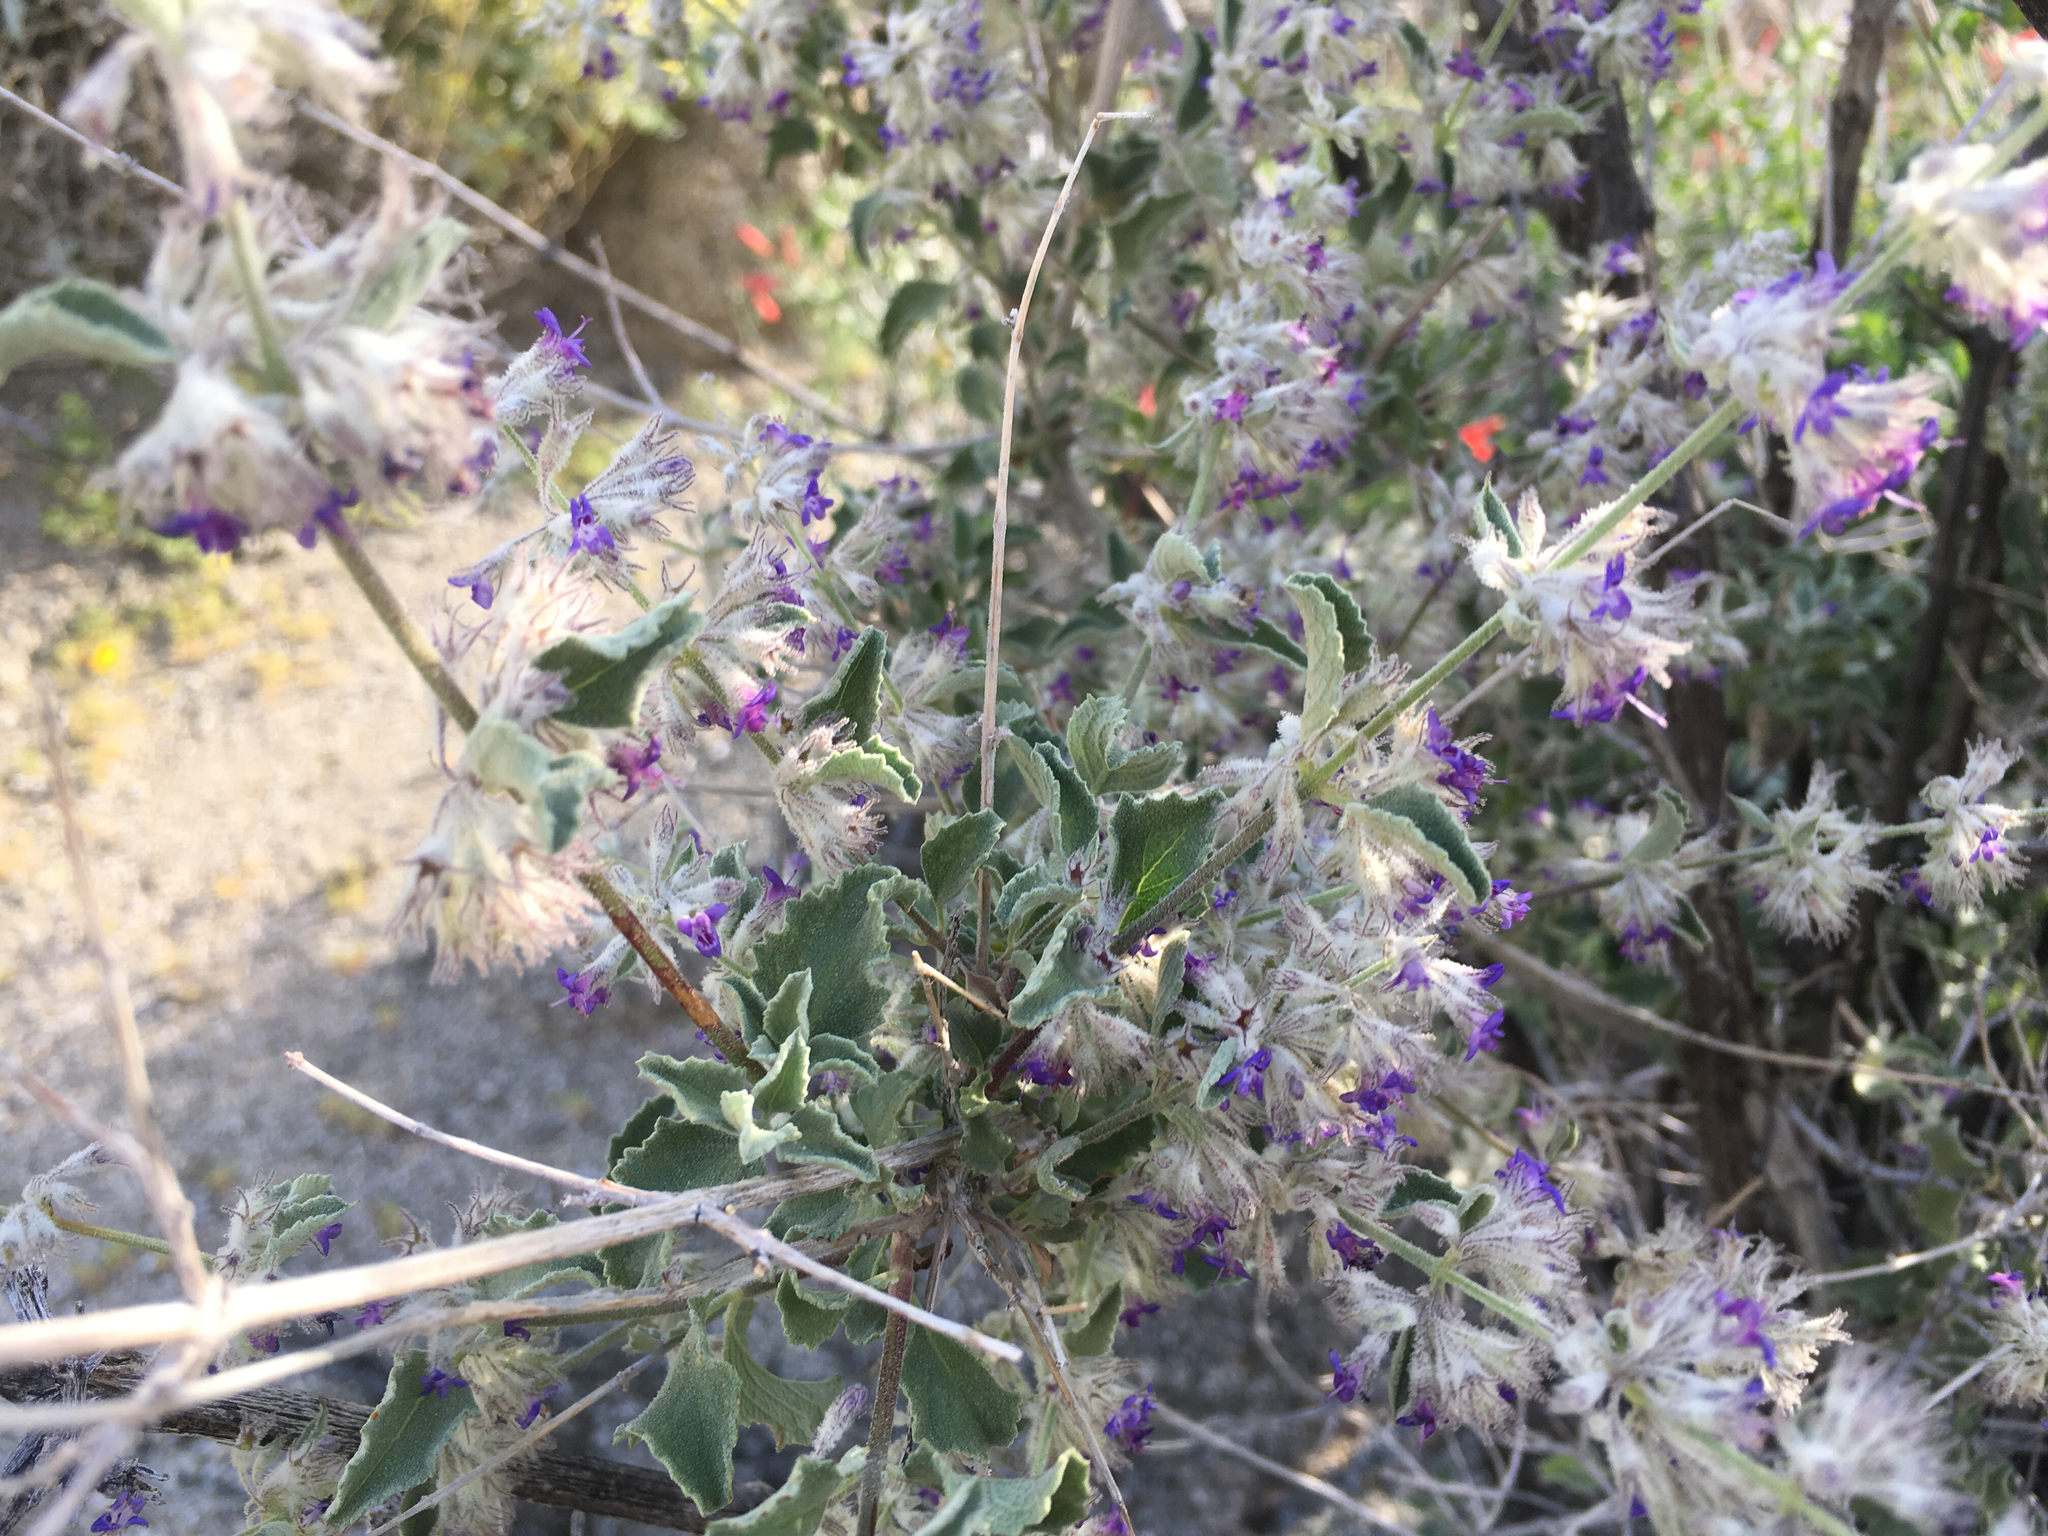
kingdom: Plantae
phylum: Tracheophyta
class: Magnoliopsida
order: Lamiales
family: Lamiaceae
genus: Condea
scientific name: Condea emoryi
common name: Chia
